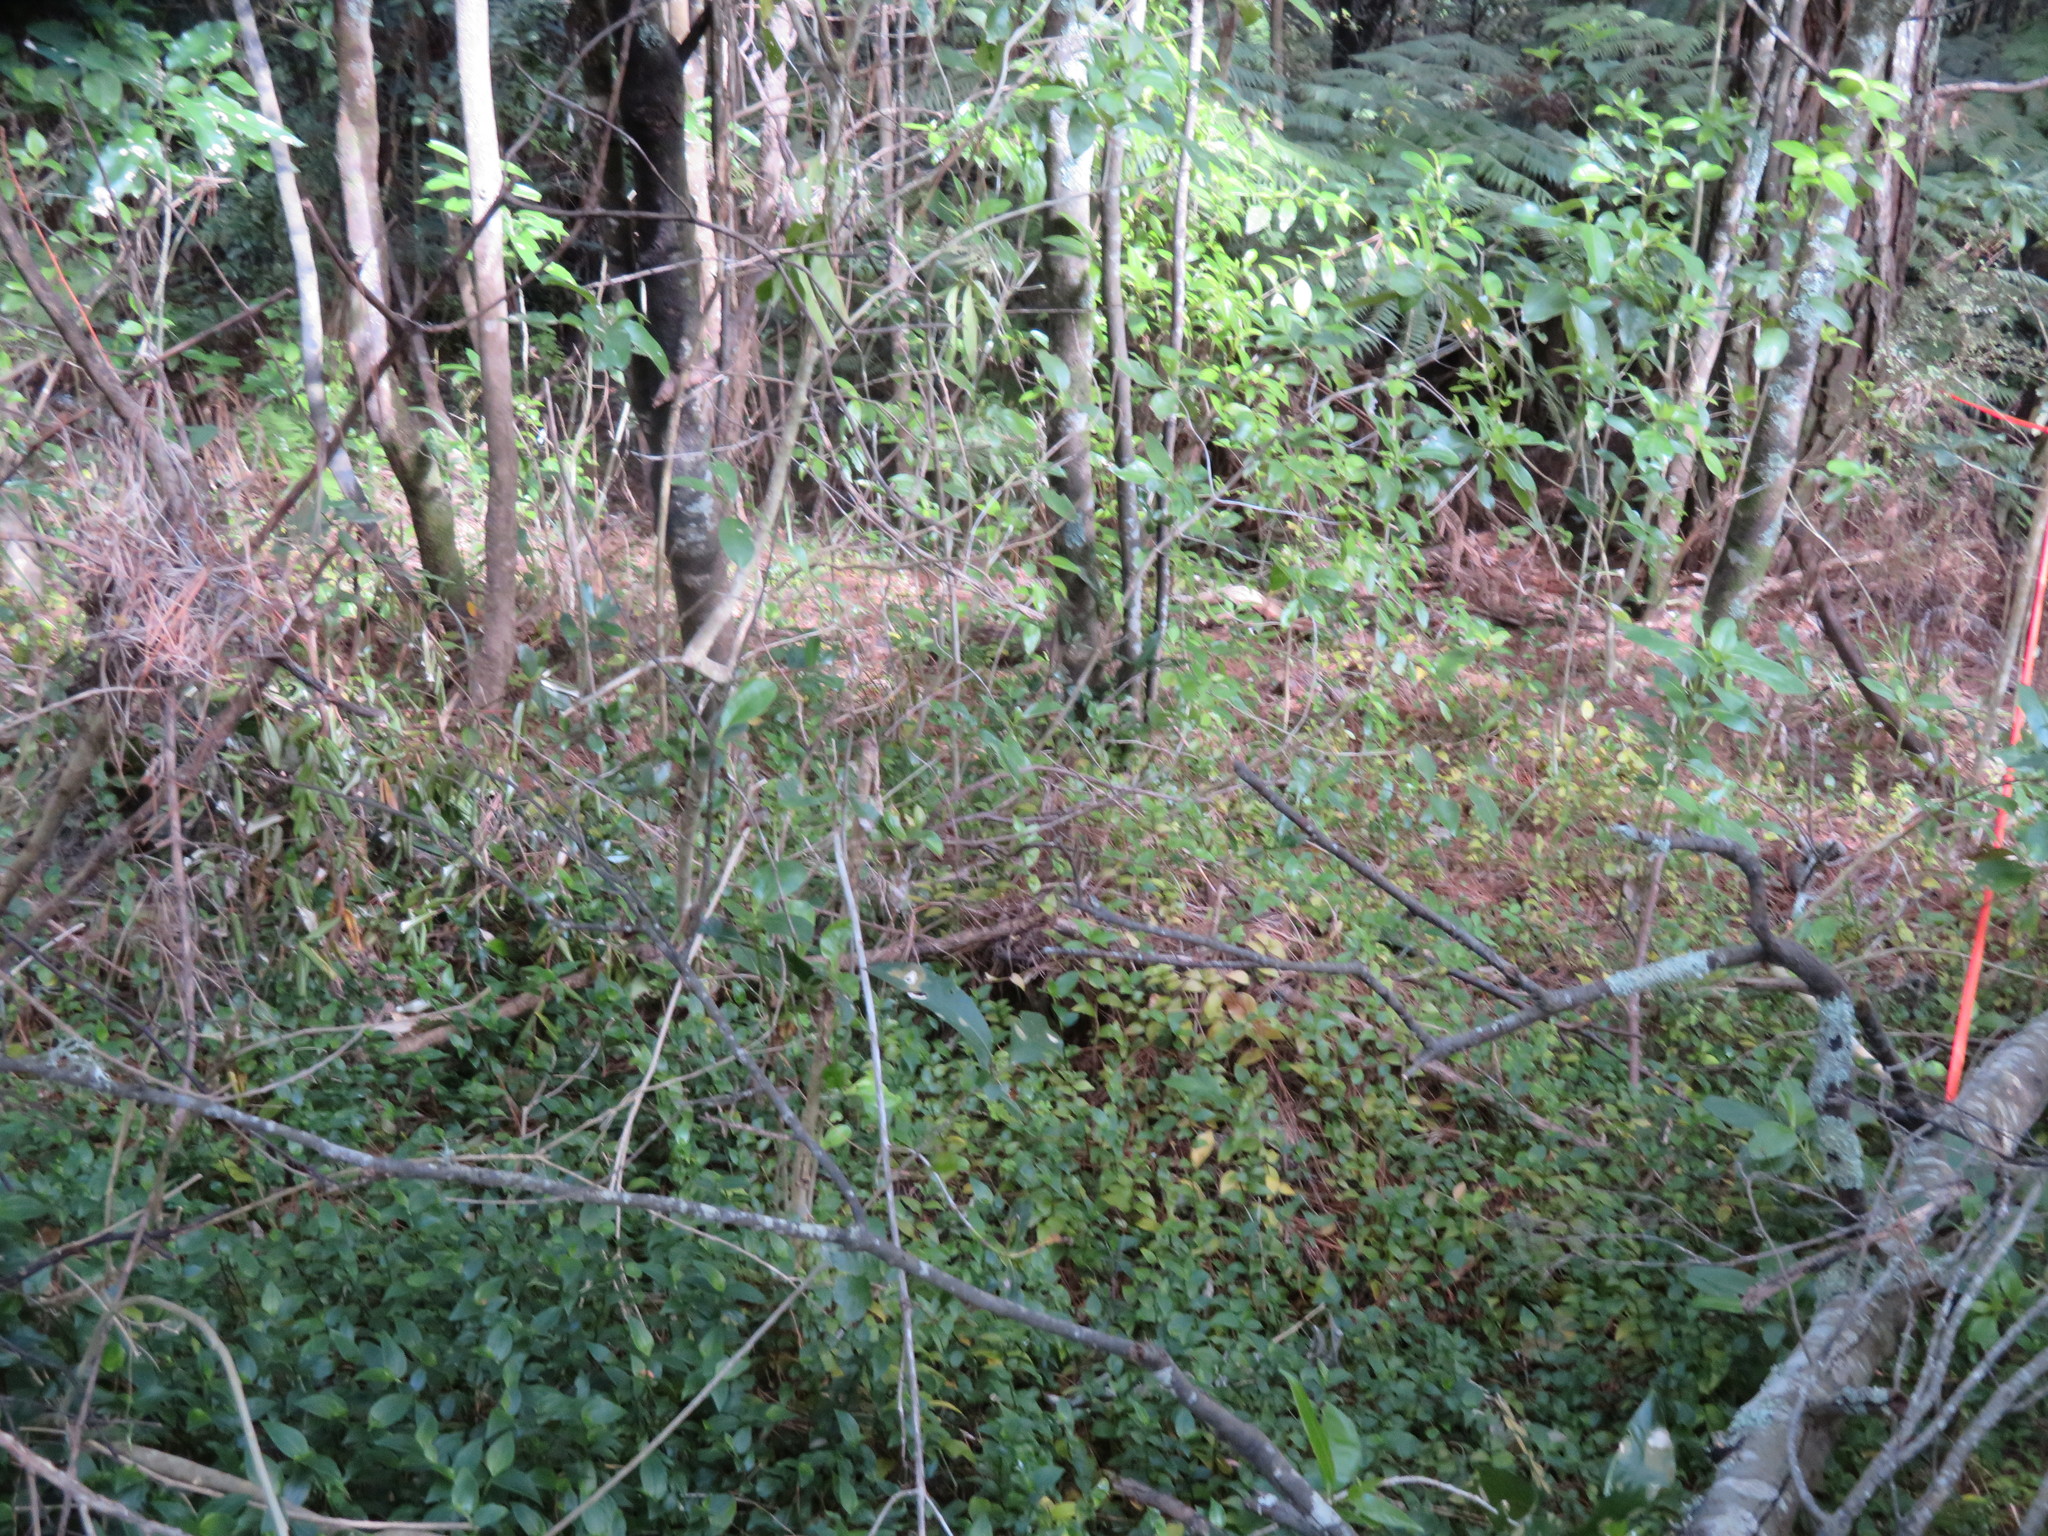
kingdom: Plantae
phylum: Tracheophyta
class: Liliopsida
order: Commelinales
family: Commelinaceae
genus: Tradescantia
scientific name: Tradescantia fluminensis
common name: Wandering-jew
